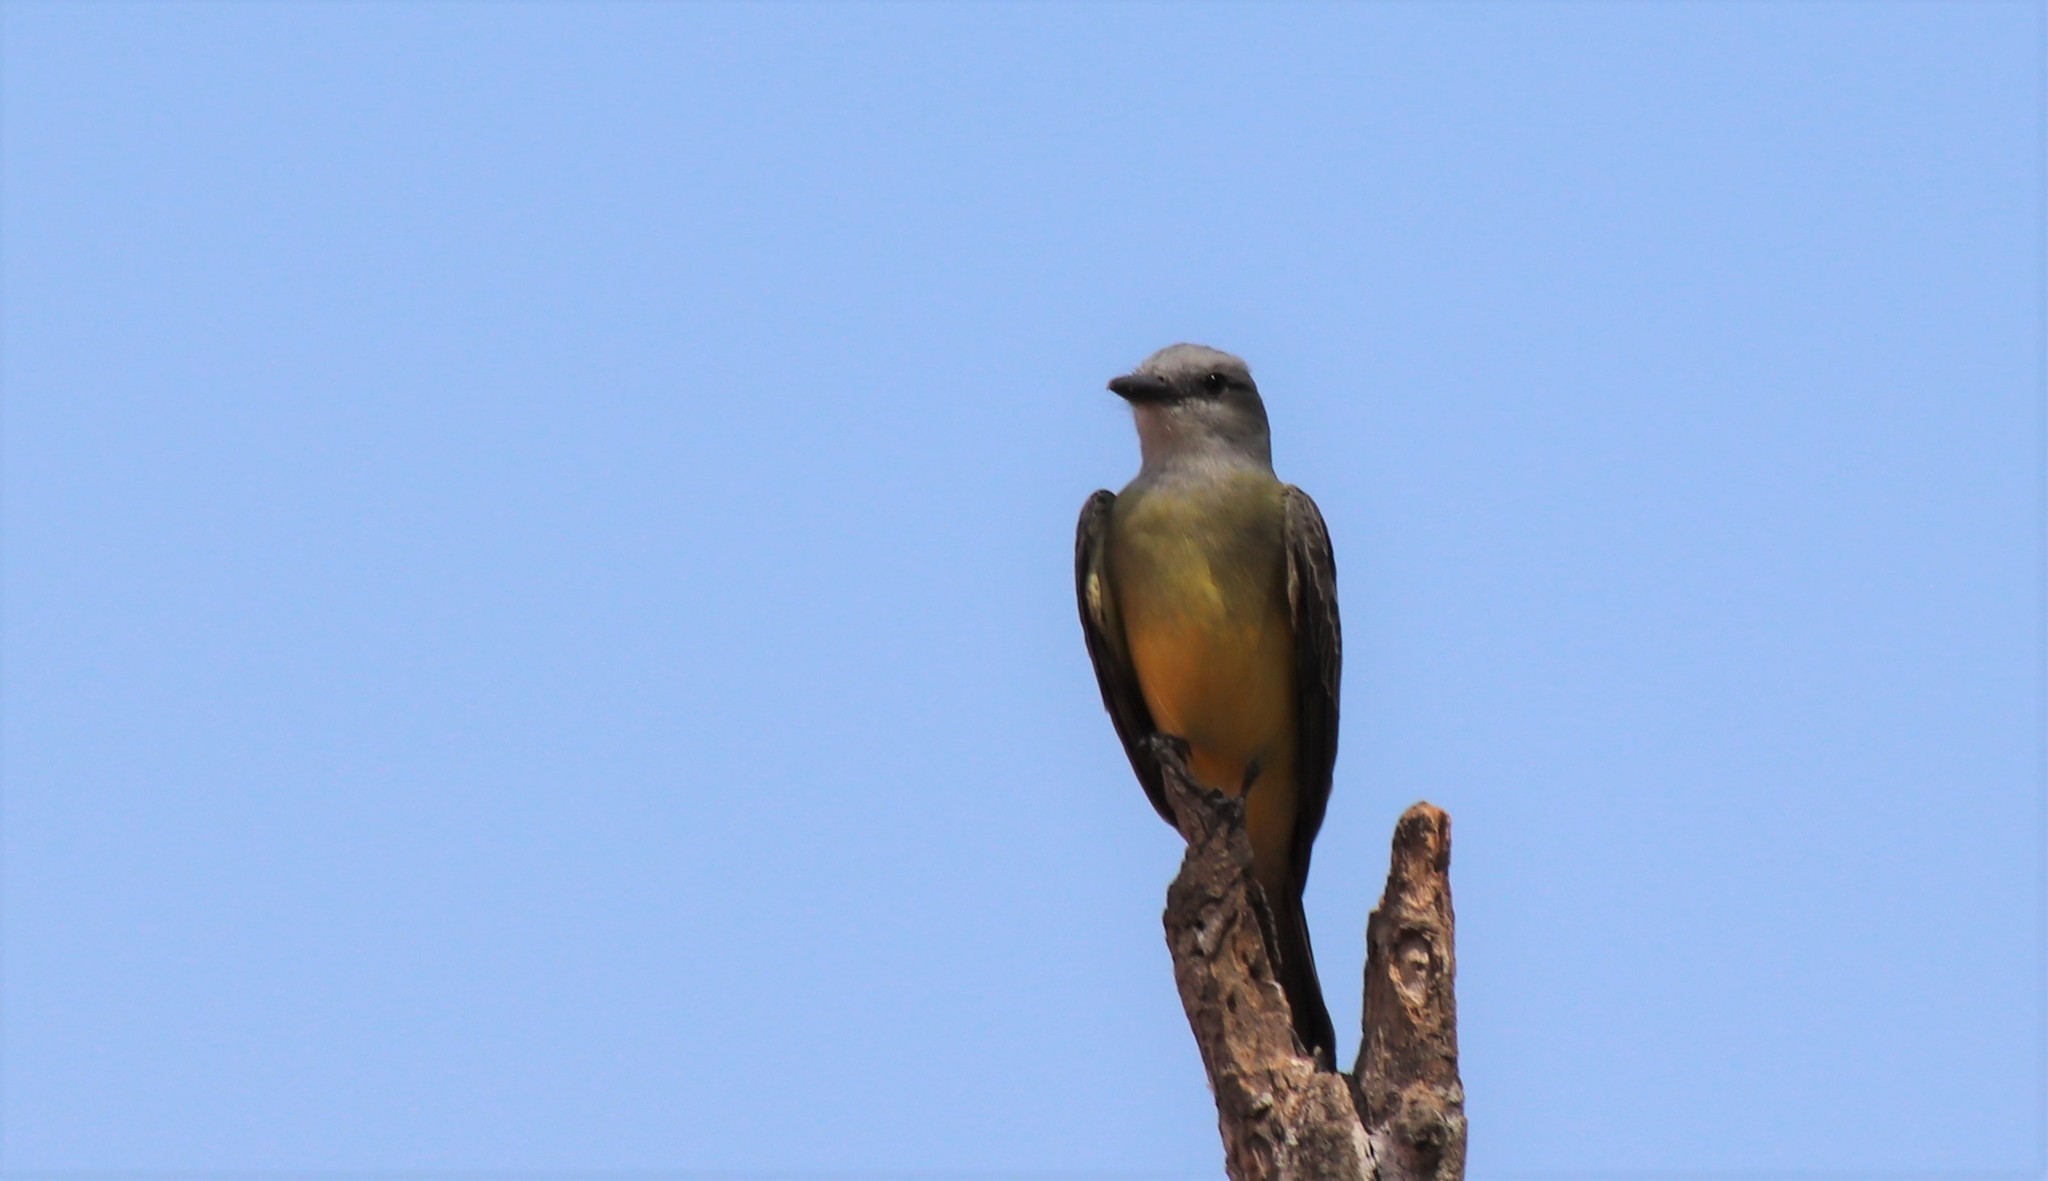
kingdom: Animalia
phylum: Chordata
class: Aves
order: Passeriformes
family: Tyrannidae
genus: Tyrannus
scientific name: Tyrannus melancholicus
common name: Tropical kingbird
